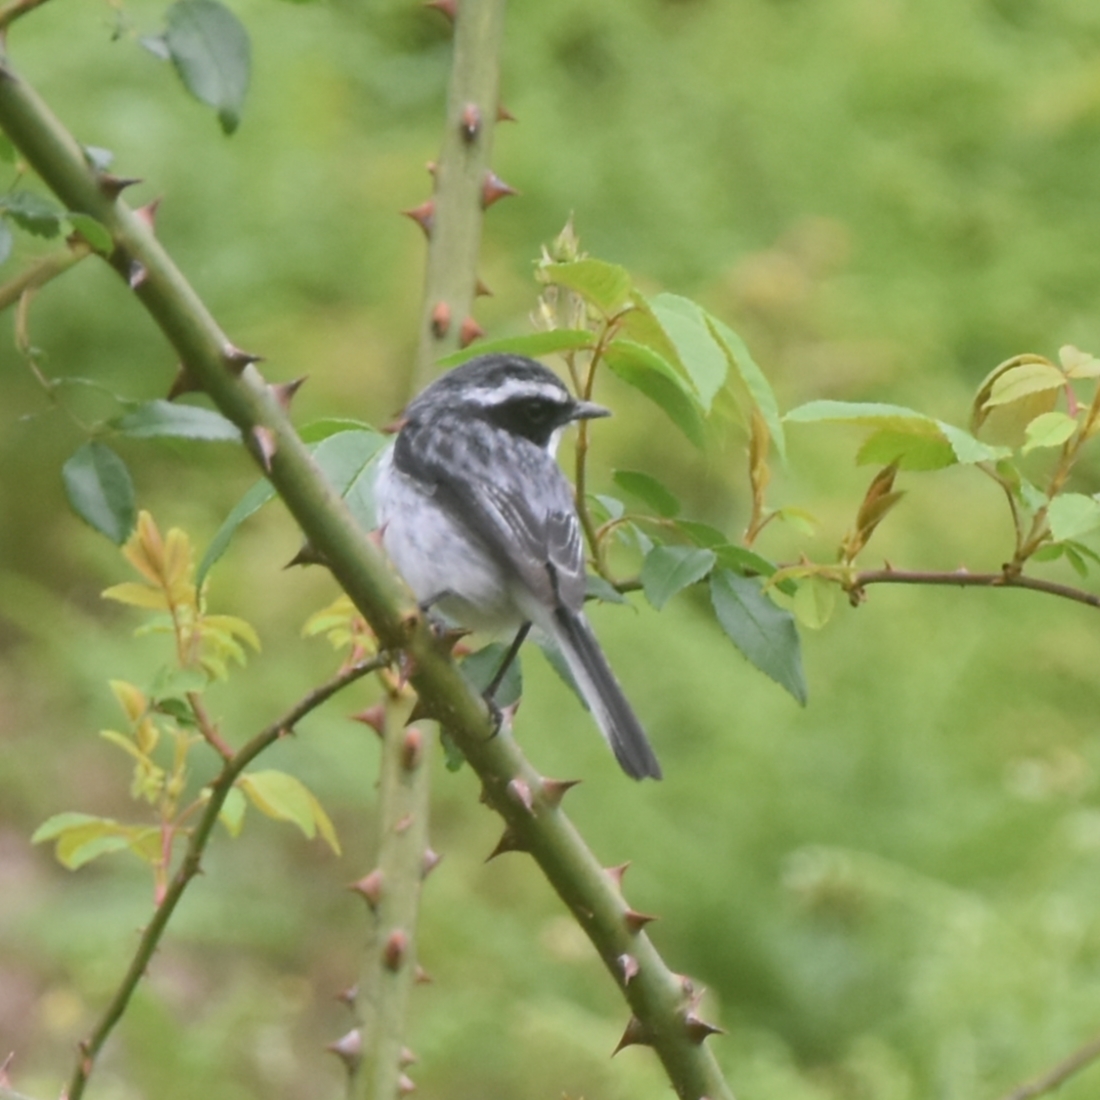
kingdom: Animalia
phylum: Chordata
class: Aves
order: Passeriformes
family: Muscicapidae
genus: Saxicola
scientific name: Saxicola ferreus
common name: Grey bush chat
